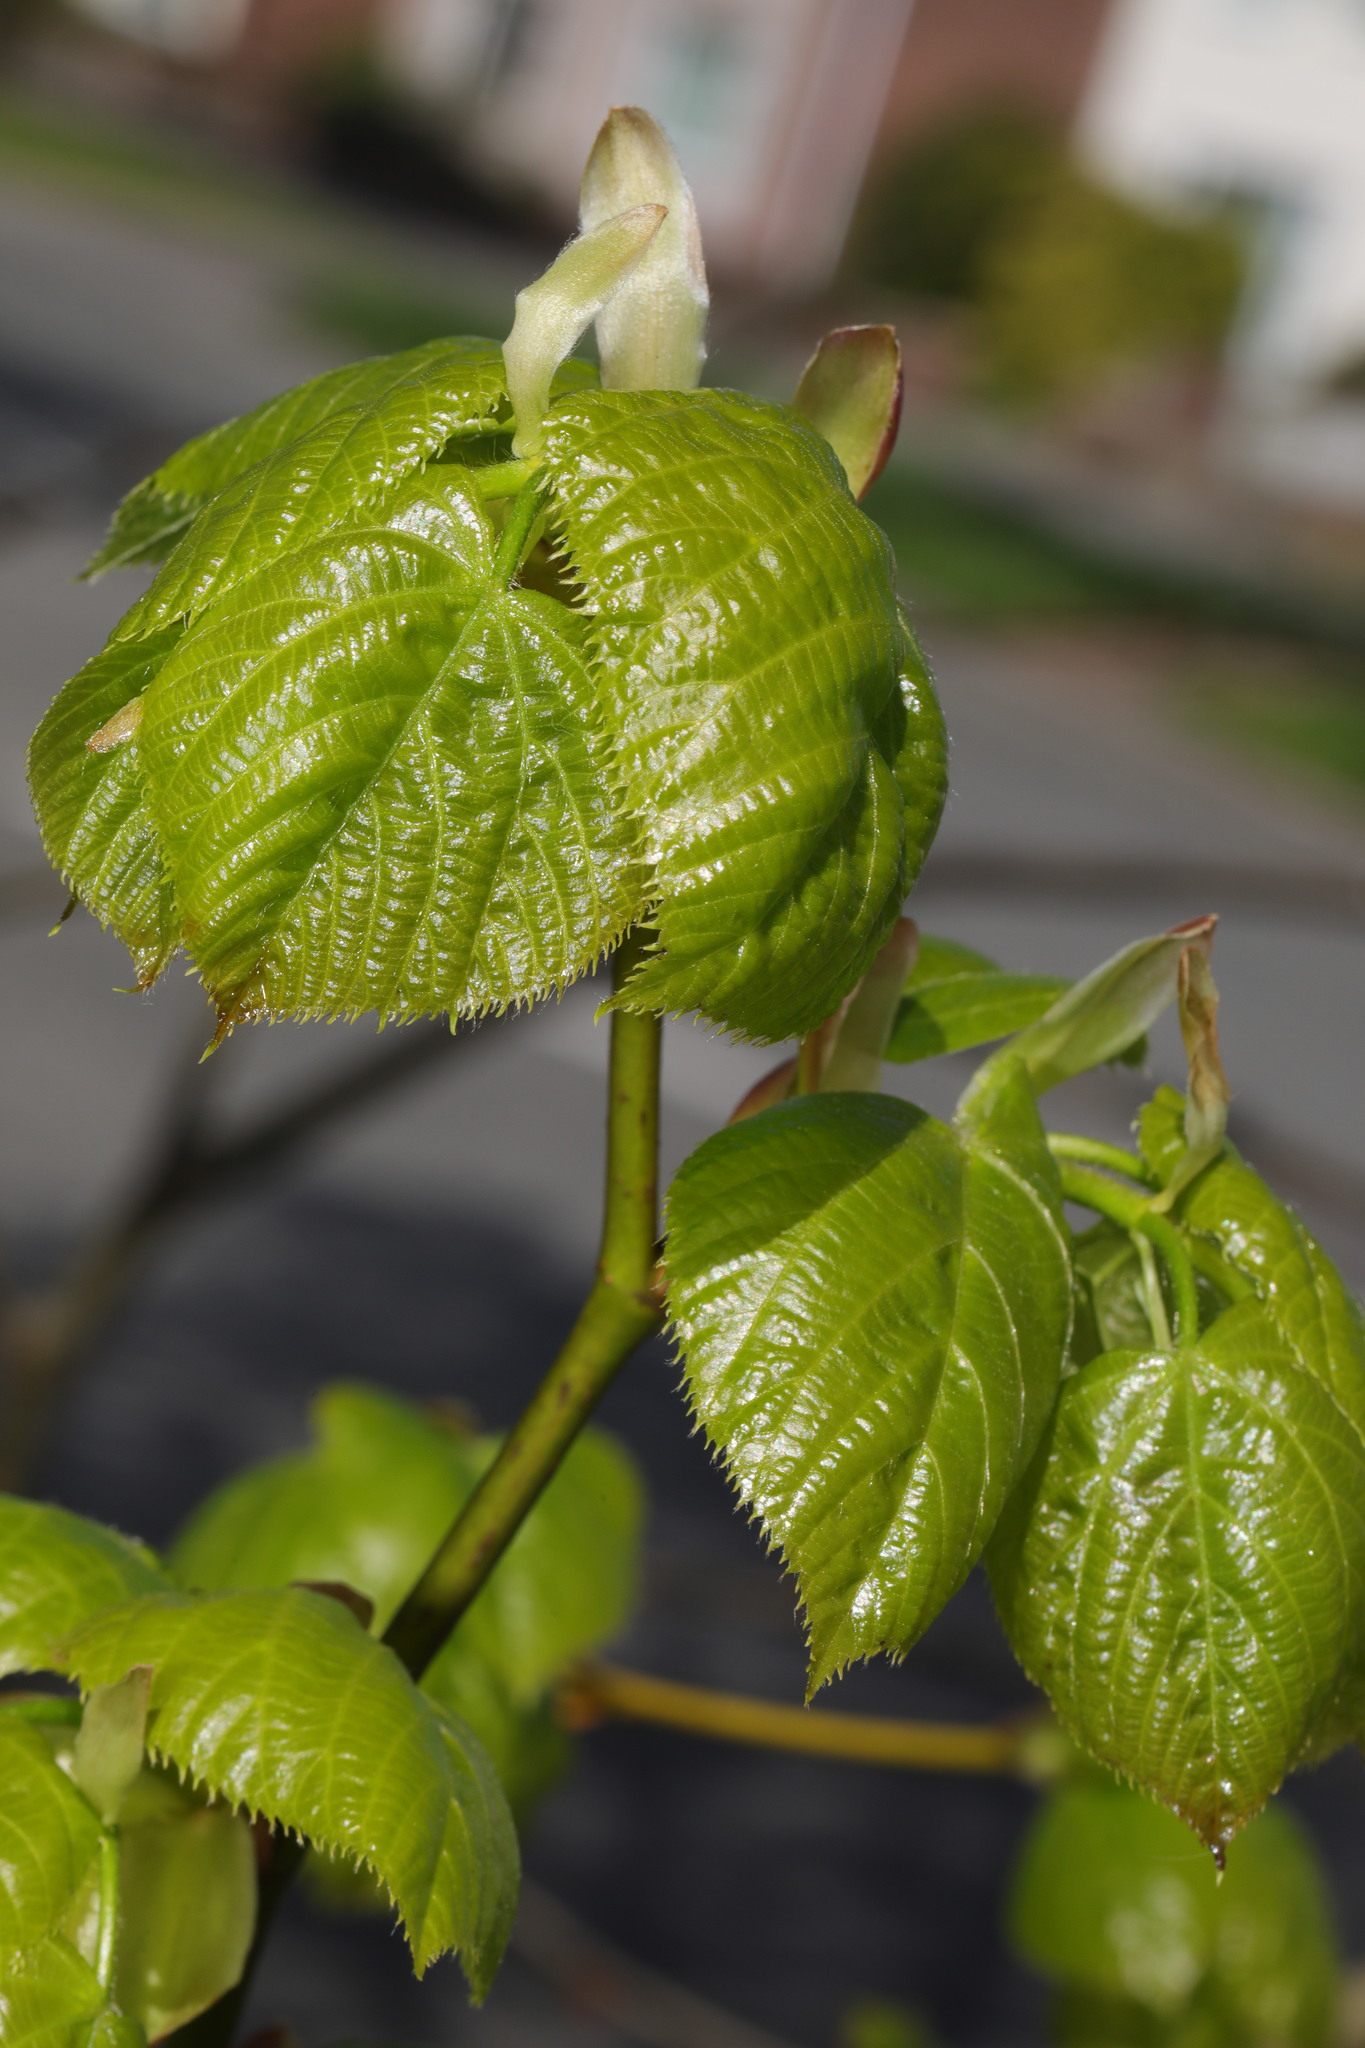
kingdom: Plantae
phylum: Tracheophyta
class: Magnoliopsida
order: Malvales
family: Malvaceae
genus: Tilia
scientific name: Tilia europaea
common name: European linden
